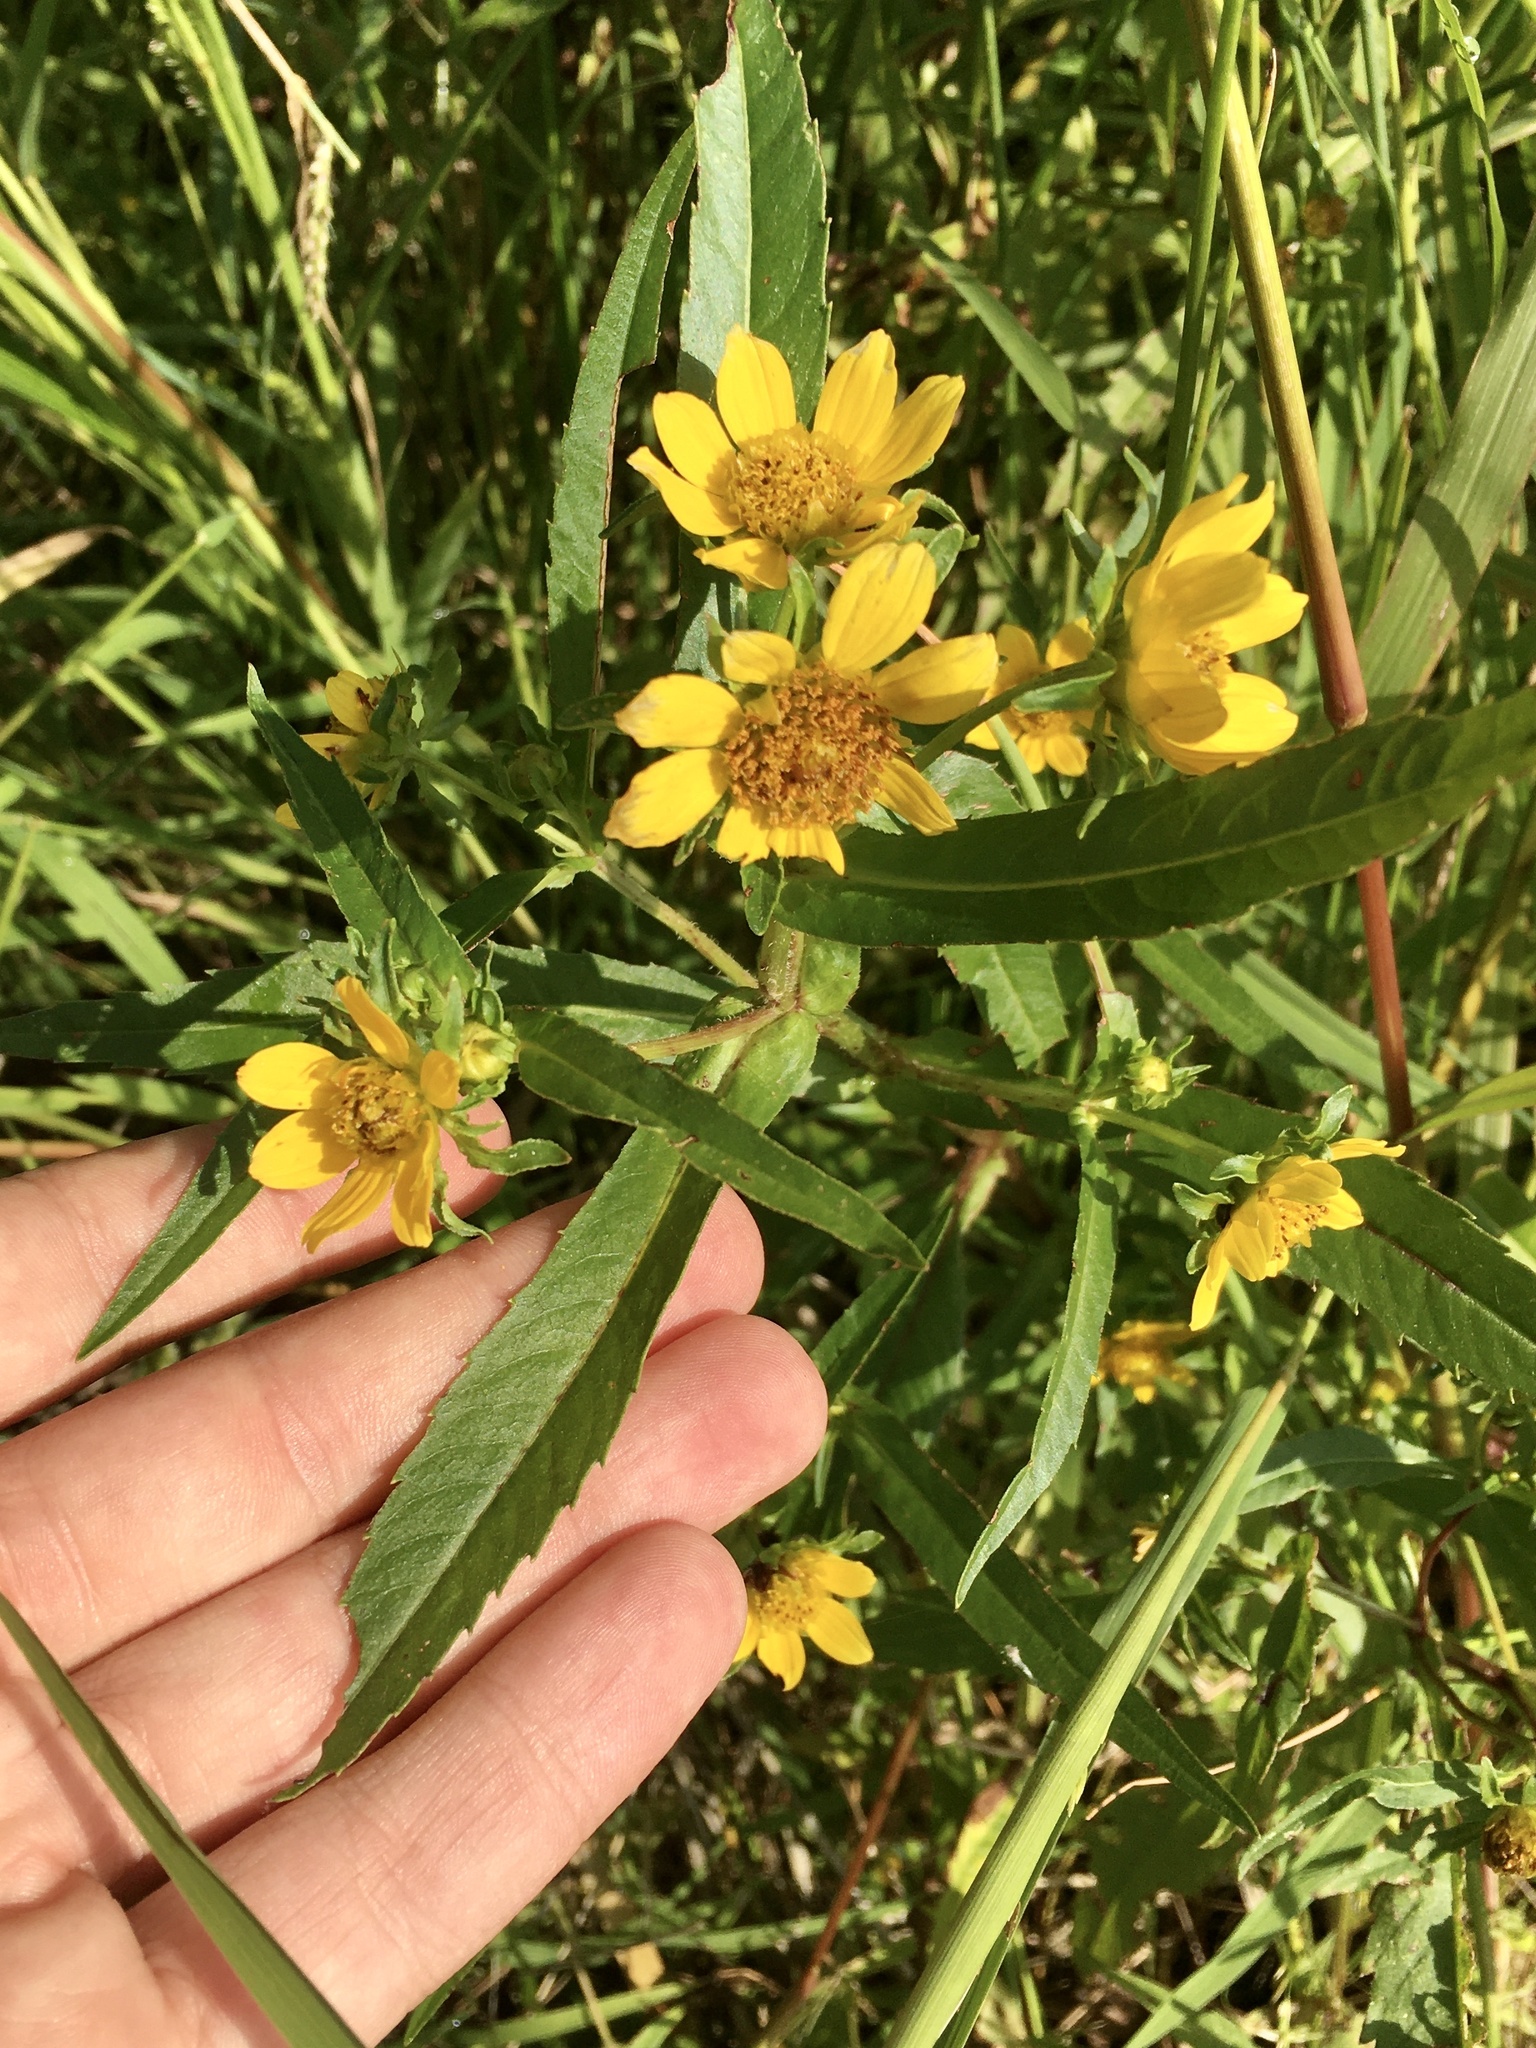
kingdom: Plantae
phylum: Tracheophyta
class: Magnoliopsida
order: Asterales
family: Asteraceae
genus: Bidens
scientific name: Bidens cernua
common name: Nodding bur-marigold
